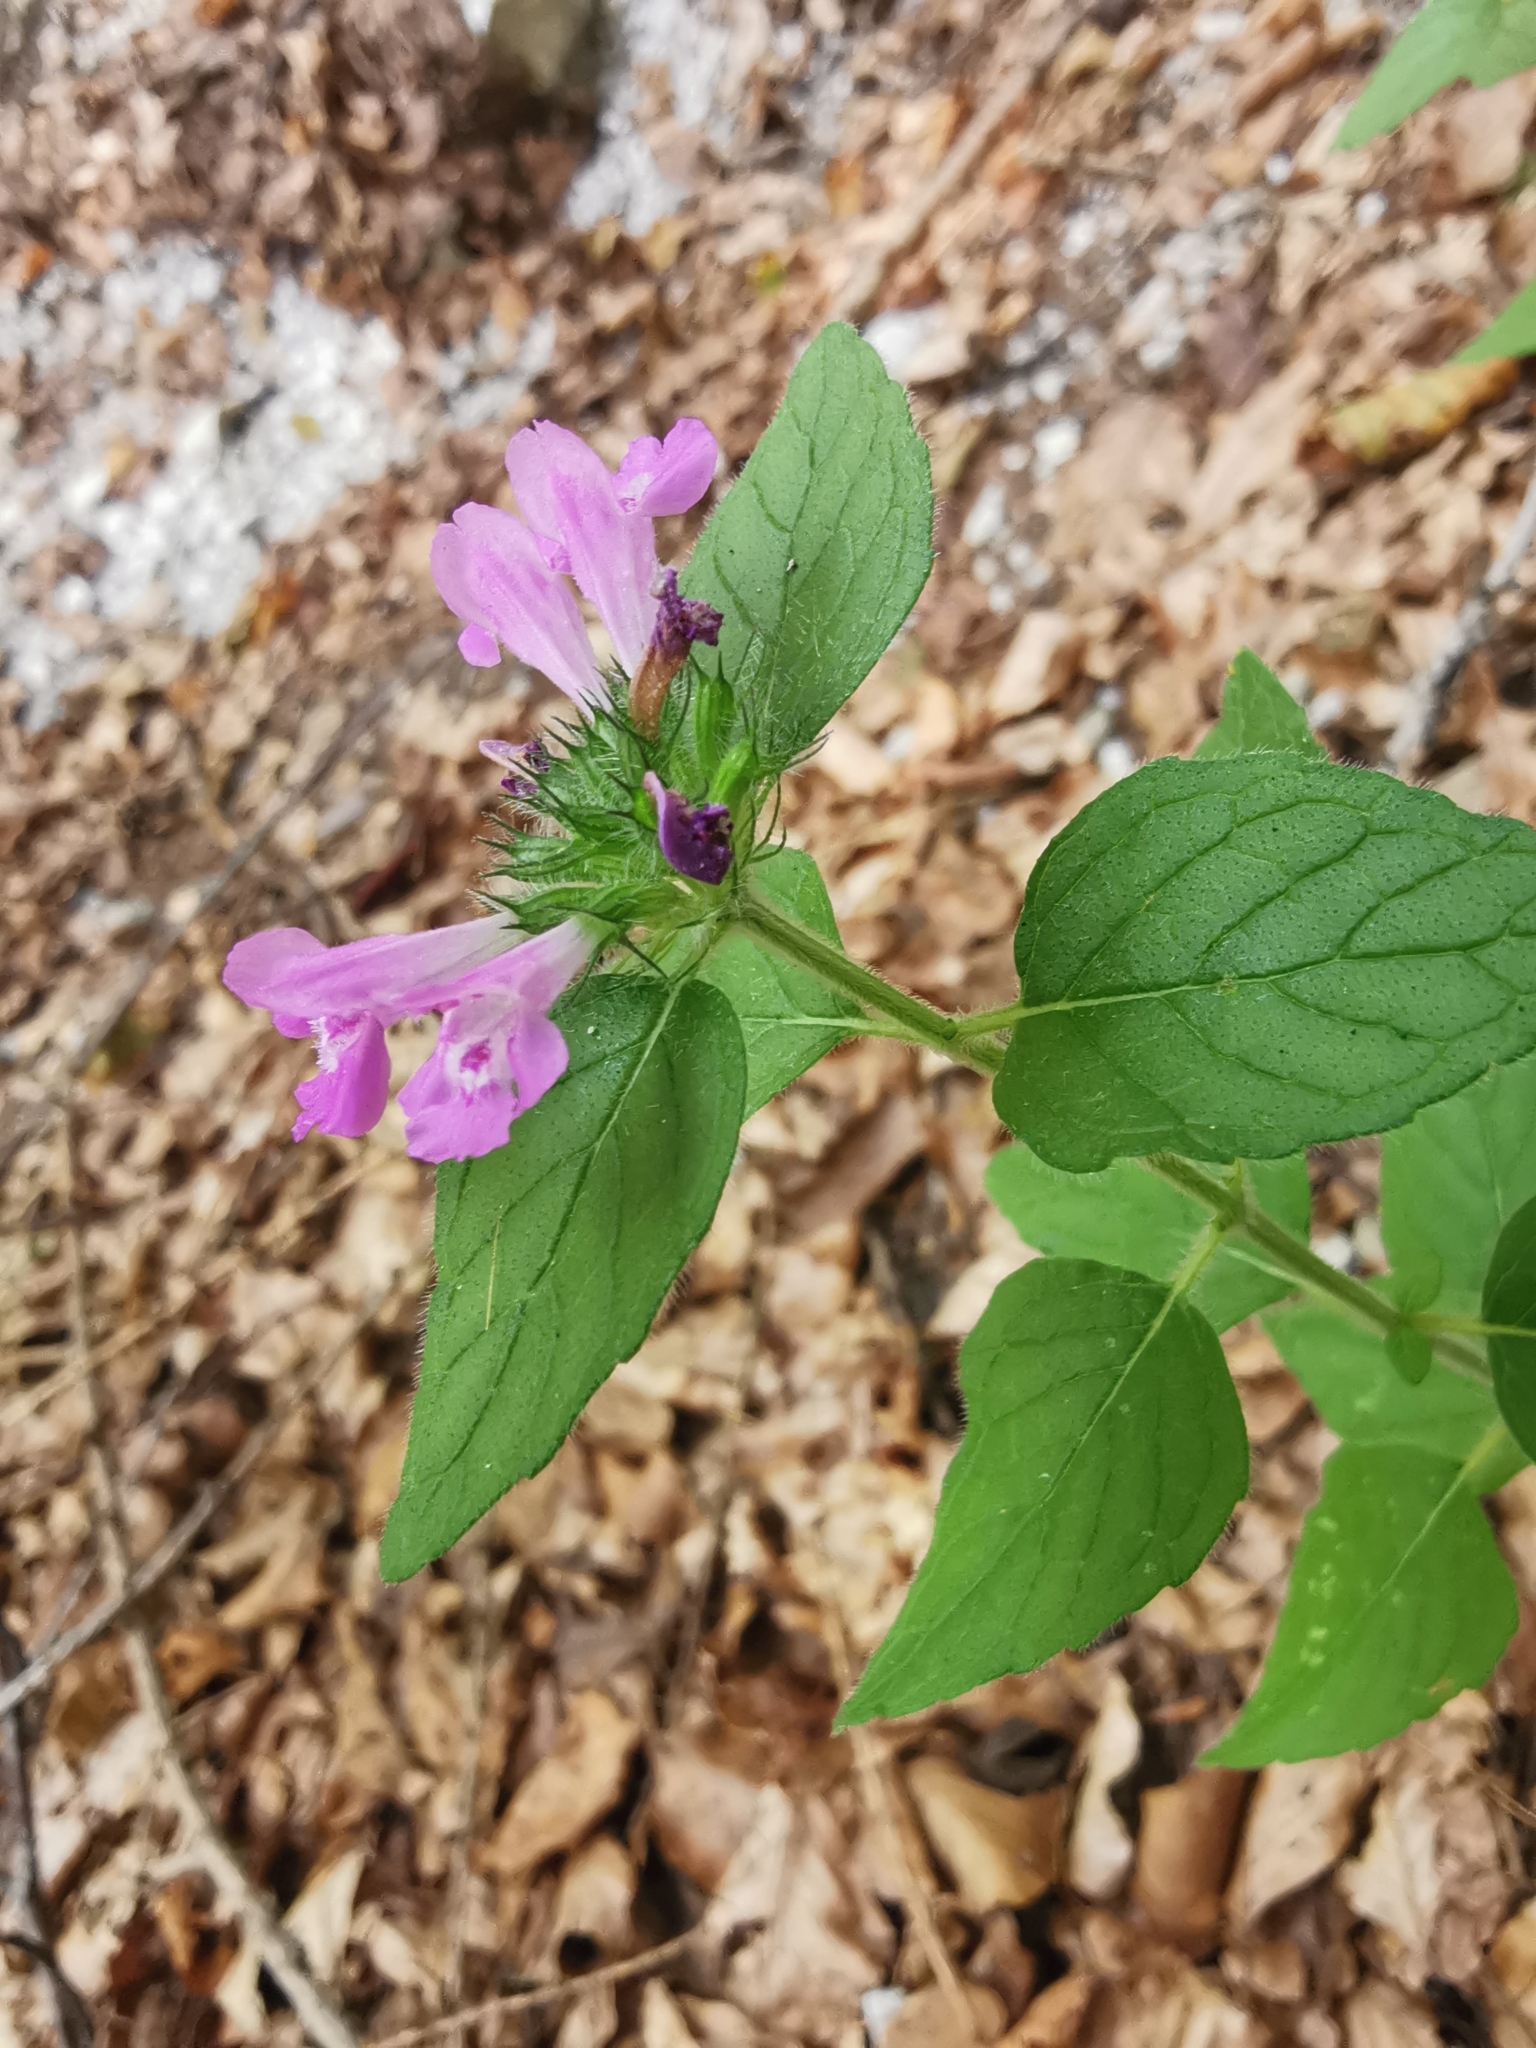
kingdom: Plantae
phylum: Tracheophyta
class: Magnoliopsida
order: Lamiales
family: Lamiaceae
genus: Clinopodium
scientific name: Clinopodium vulgare
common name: Wild basil
